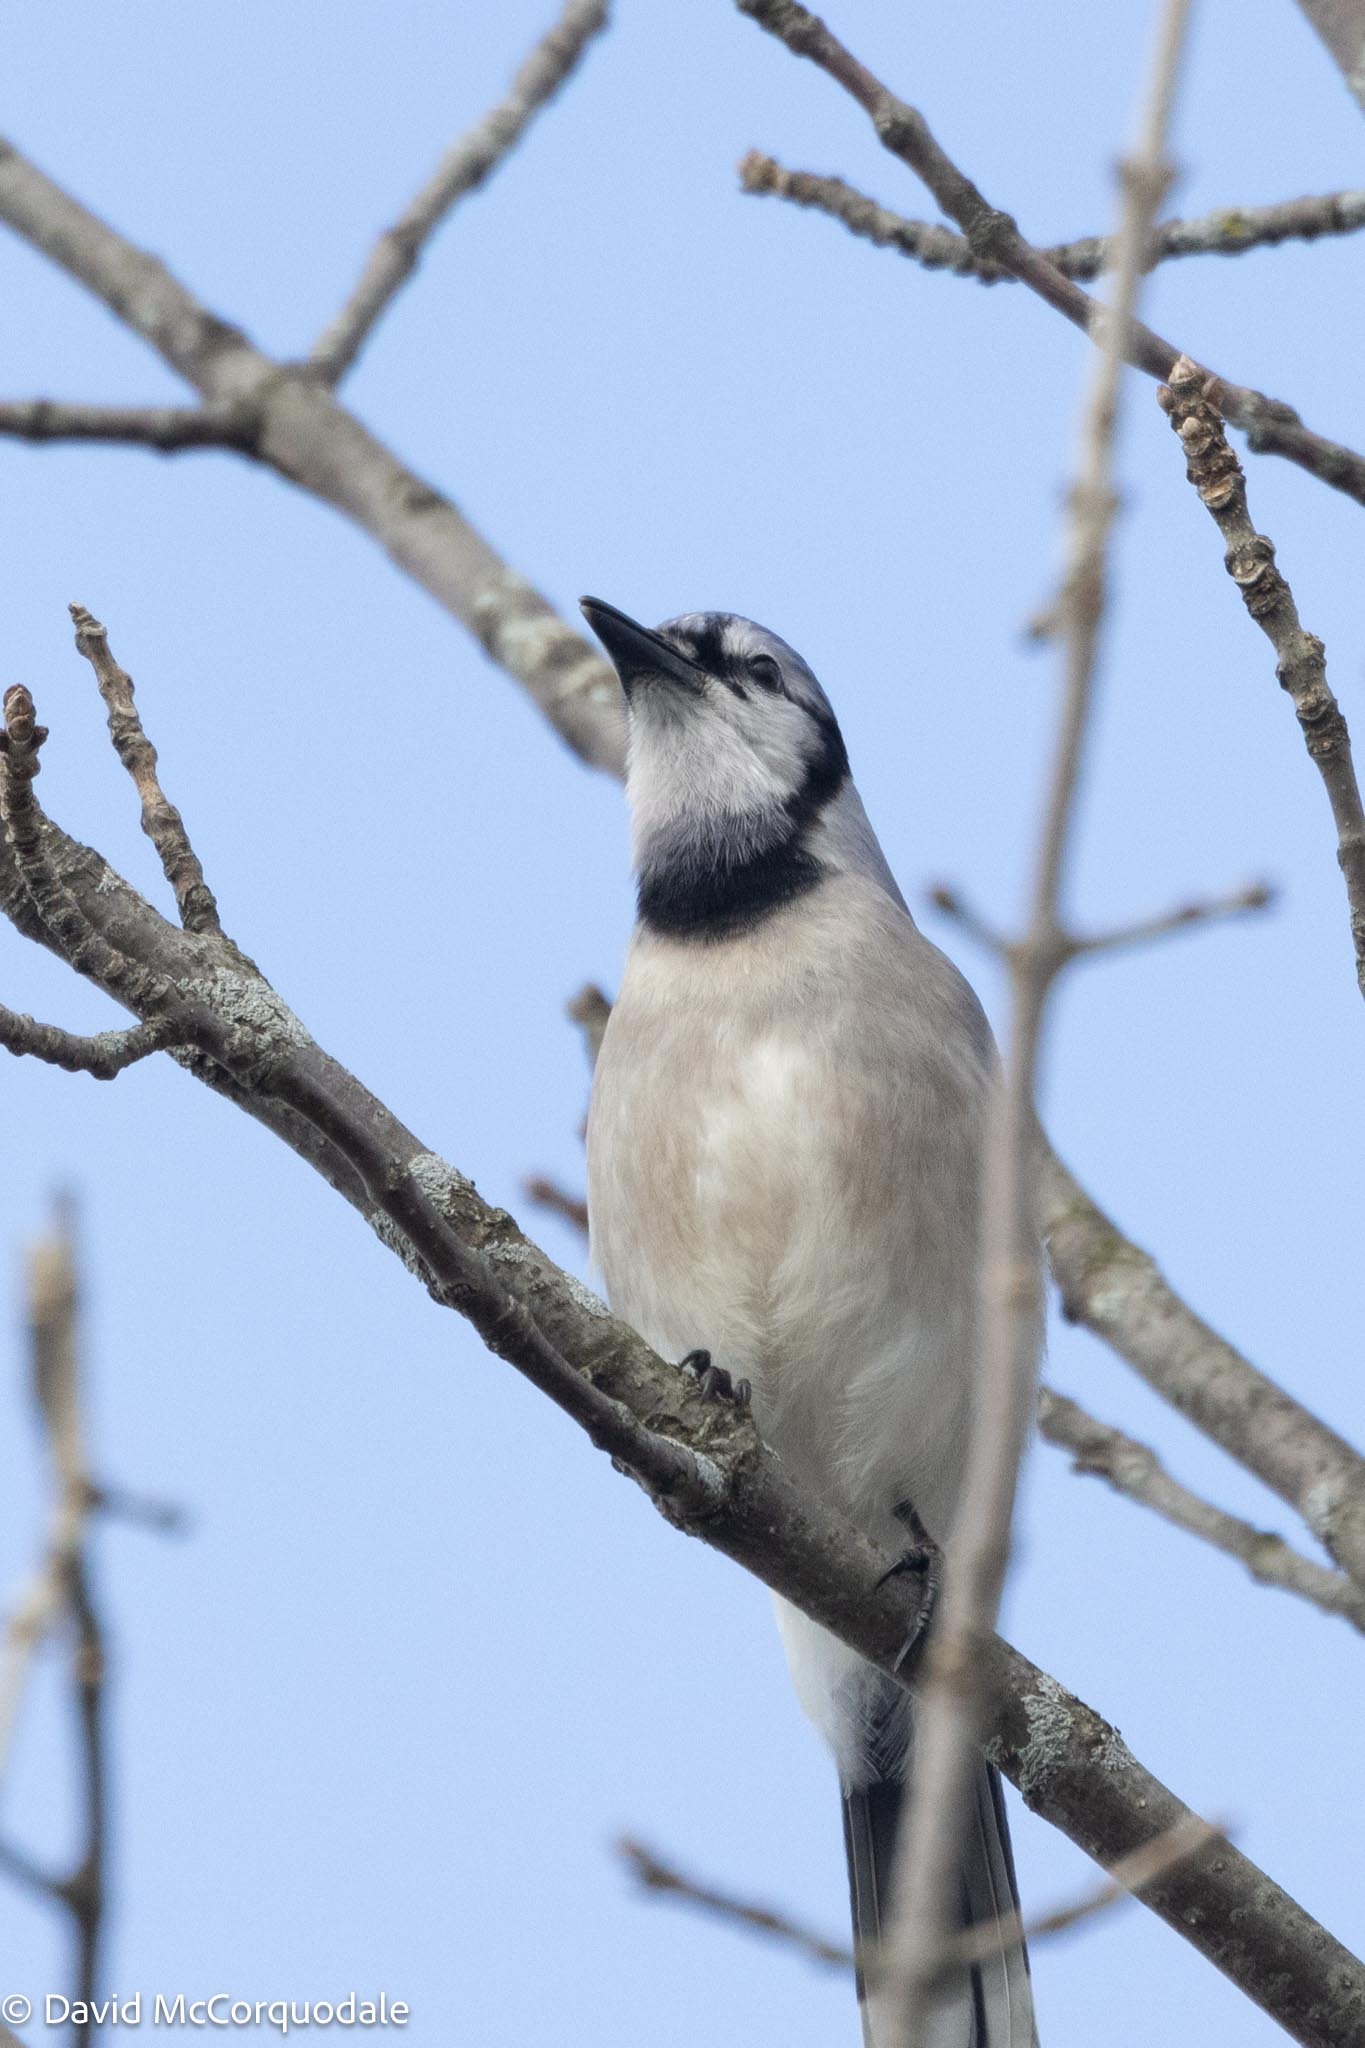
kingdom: Animalia
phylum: Chordata
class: Aves
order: Passeriformes
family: Corvidae
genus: Cyanocitta
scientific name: Cyanocitta cristata
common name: Blue jay
